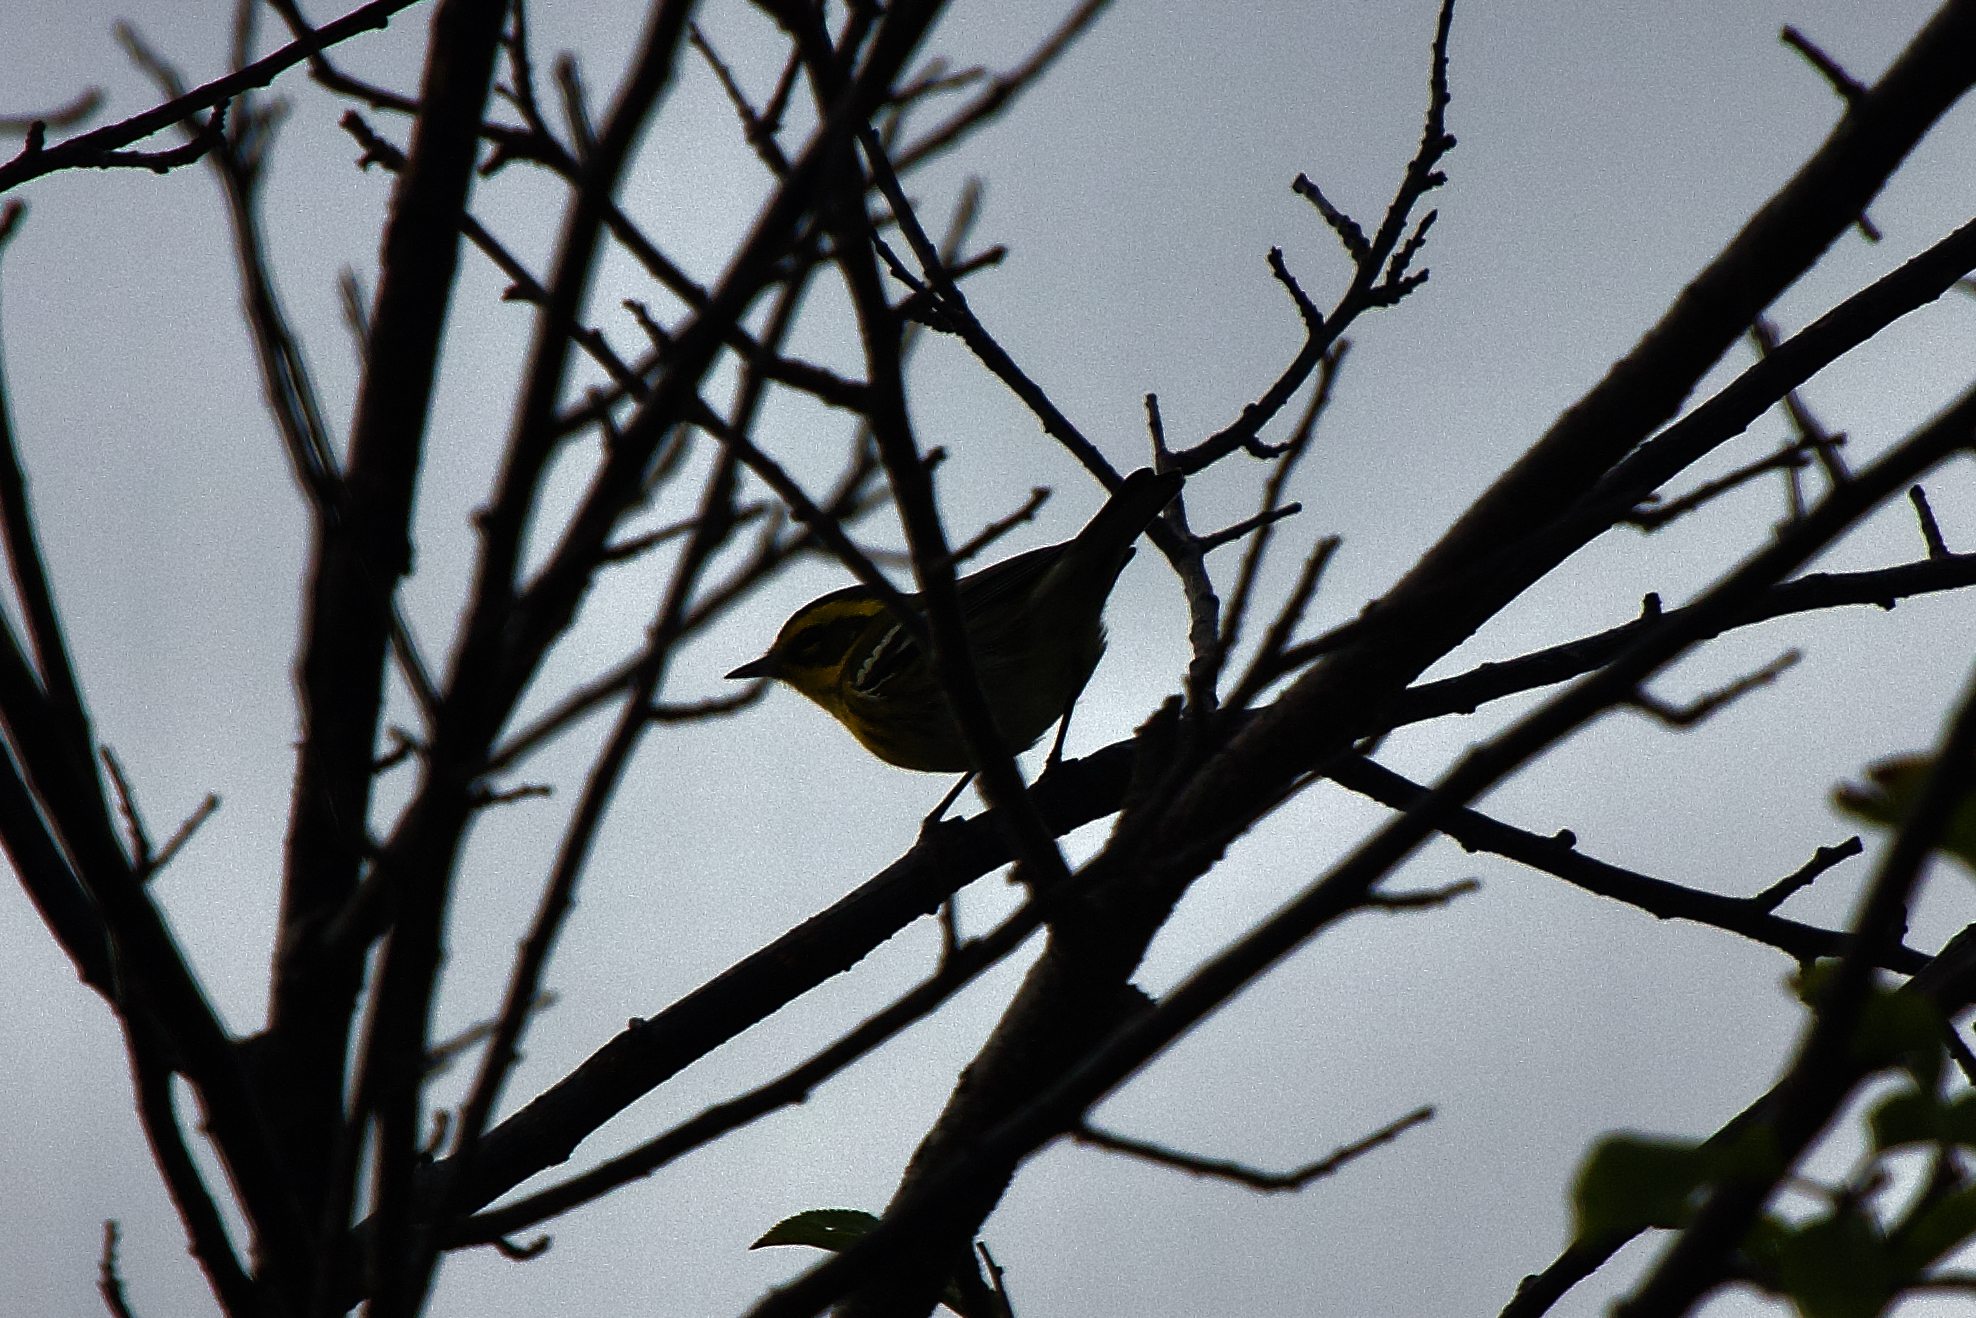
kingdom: Animalia
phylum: Chordata
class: Aves
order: Passeriformes
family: Parulidae
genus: Setophaga
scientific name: Setophaga townsendi
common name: Townsend's warbler
